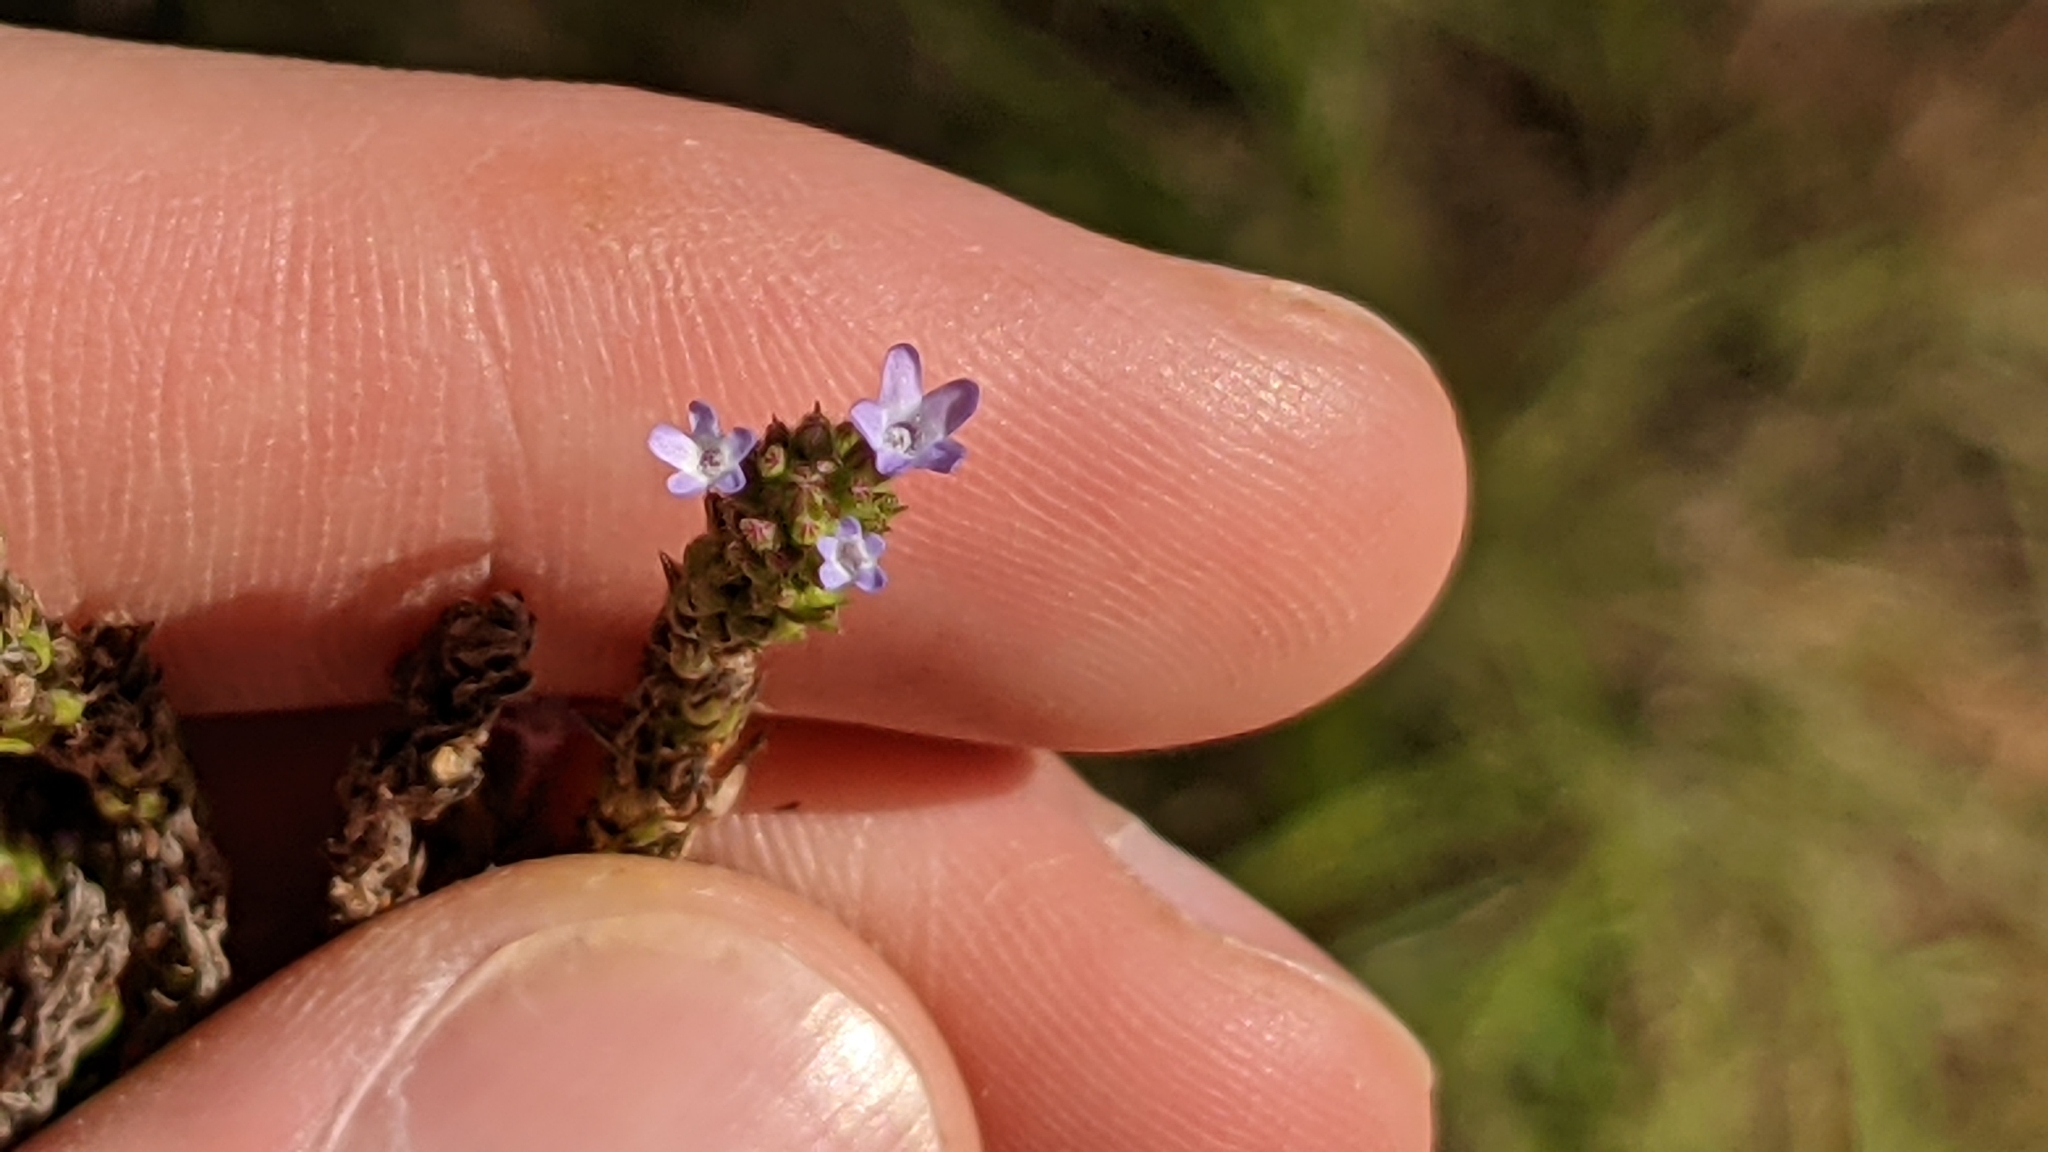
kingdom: Plantae
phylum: Tracheophyta
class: Magnoliopsida
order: Lamiales
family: Verbenaceae
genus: Verbena
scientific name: Verbena brasiliensis
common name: Brazilian vervain
